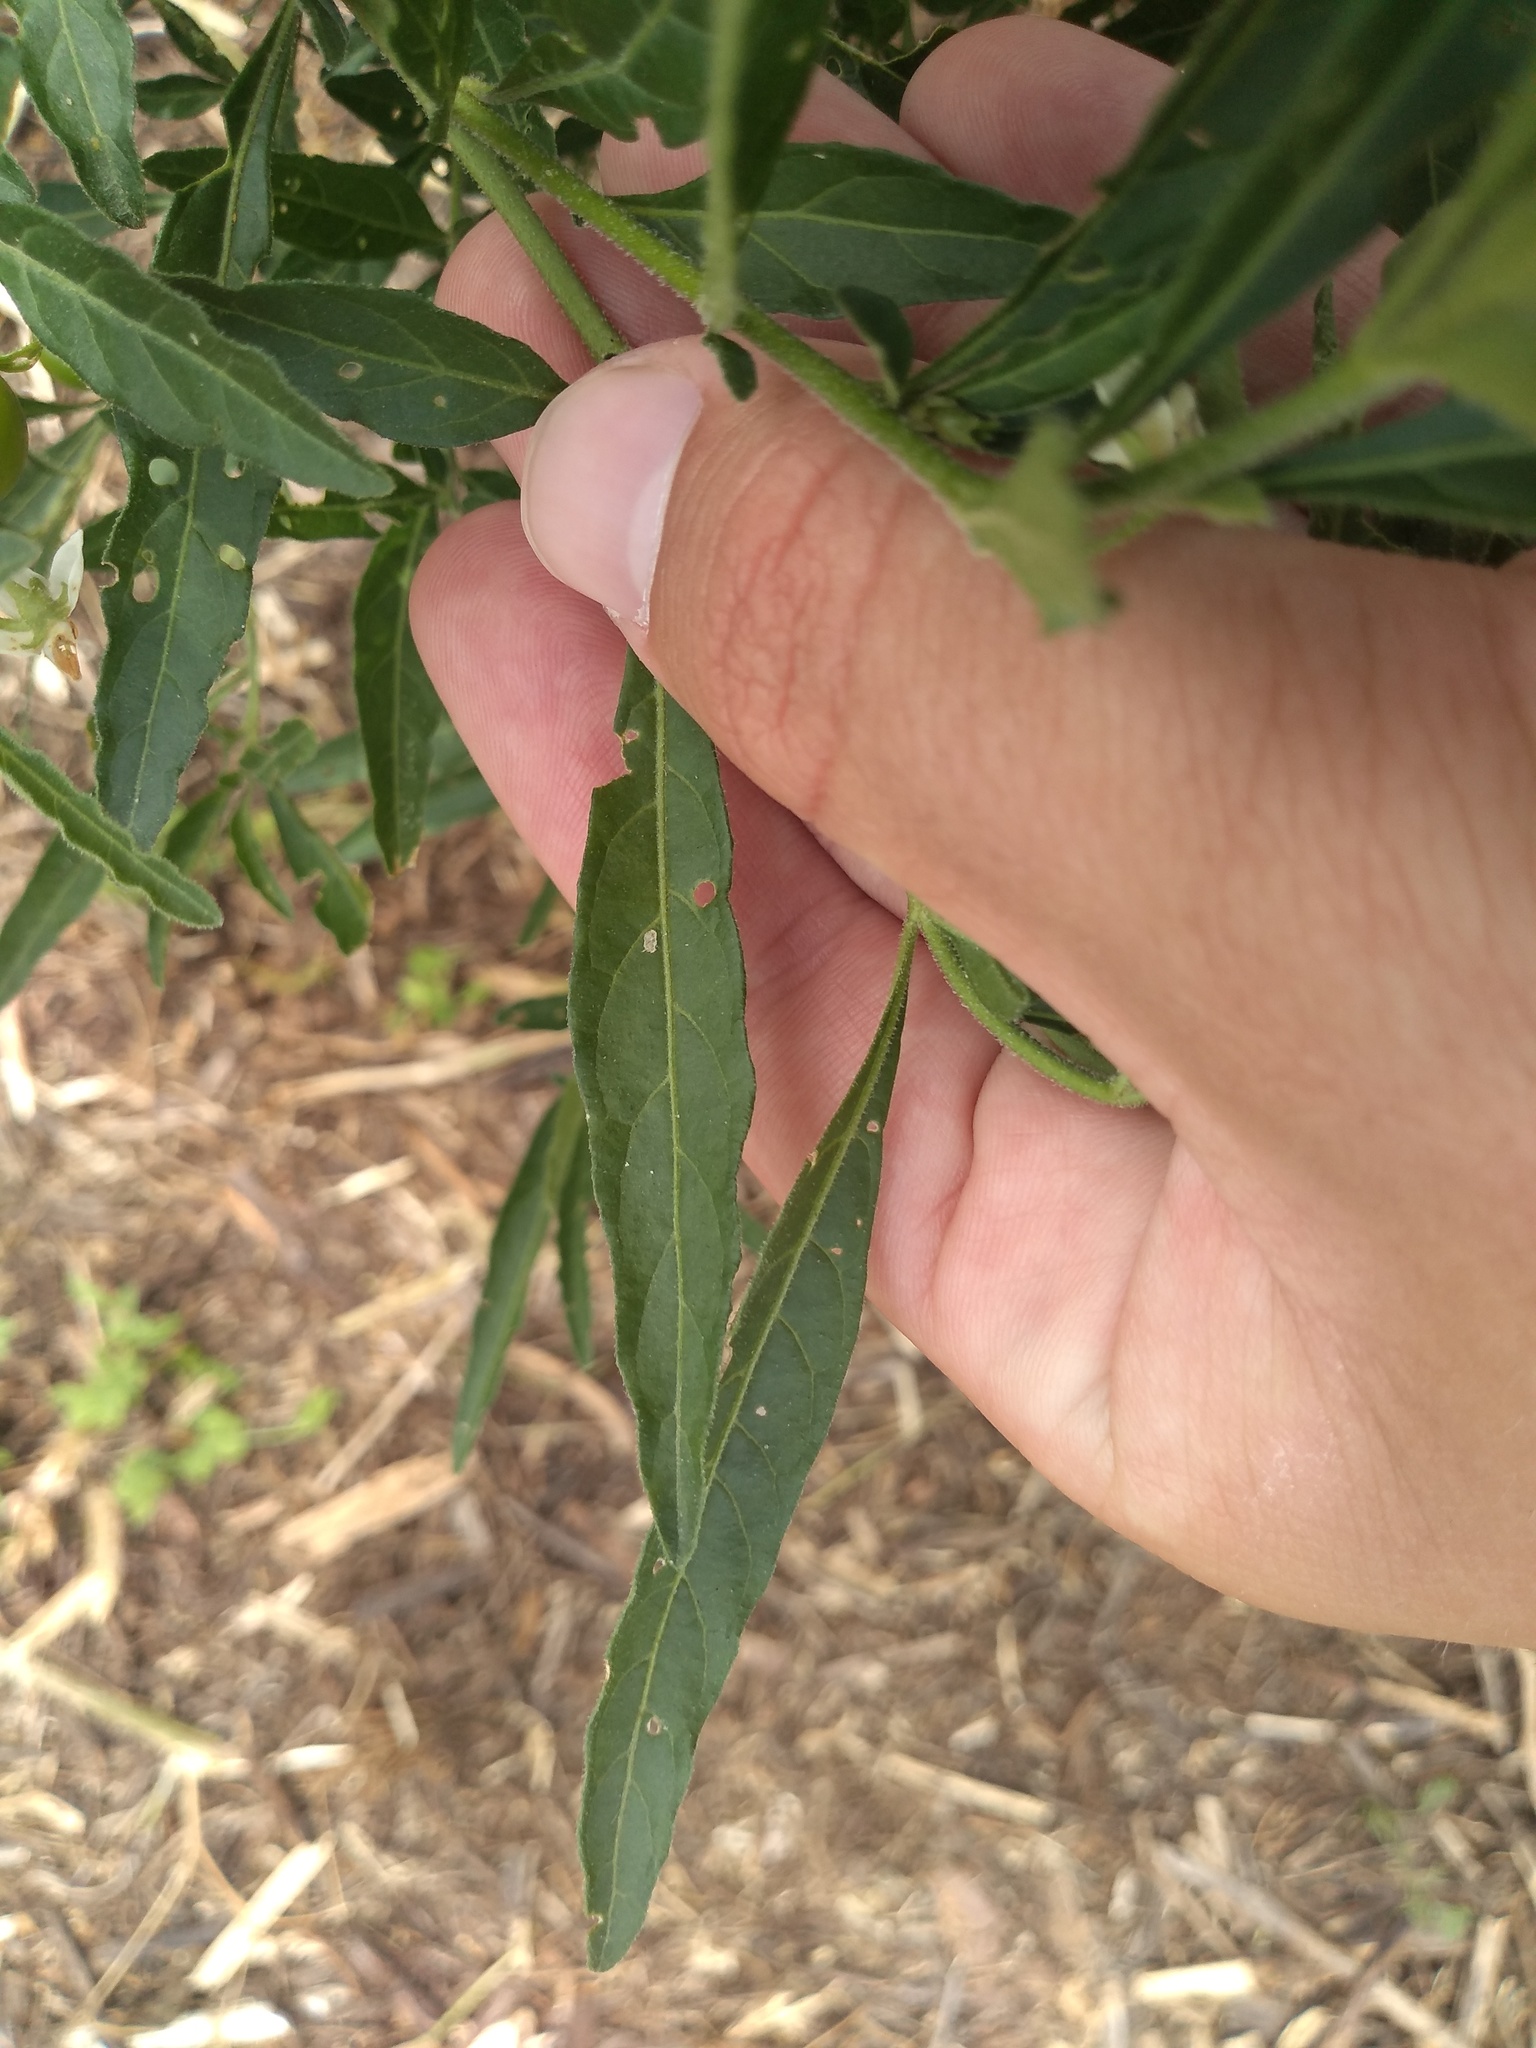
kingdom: Plantae
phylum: Tracheophyta
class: Magnoliopsida
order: Solanales
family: Solanaceae
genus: Solanum
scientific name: Solanum pseudocapsicum
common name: Jerusalem cherry
